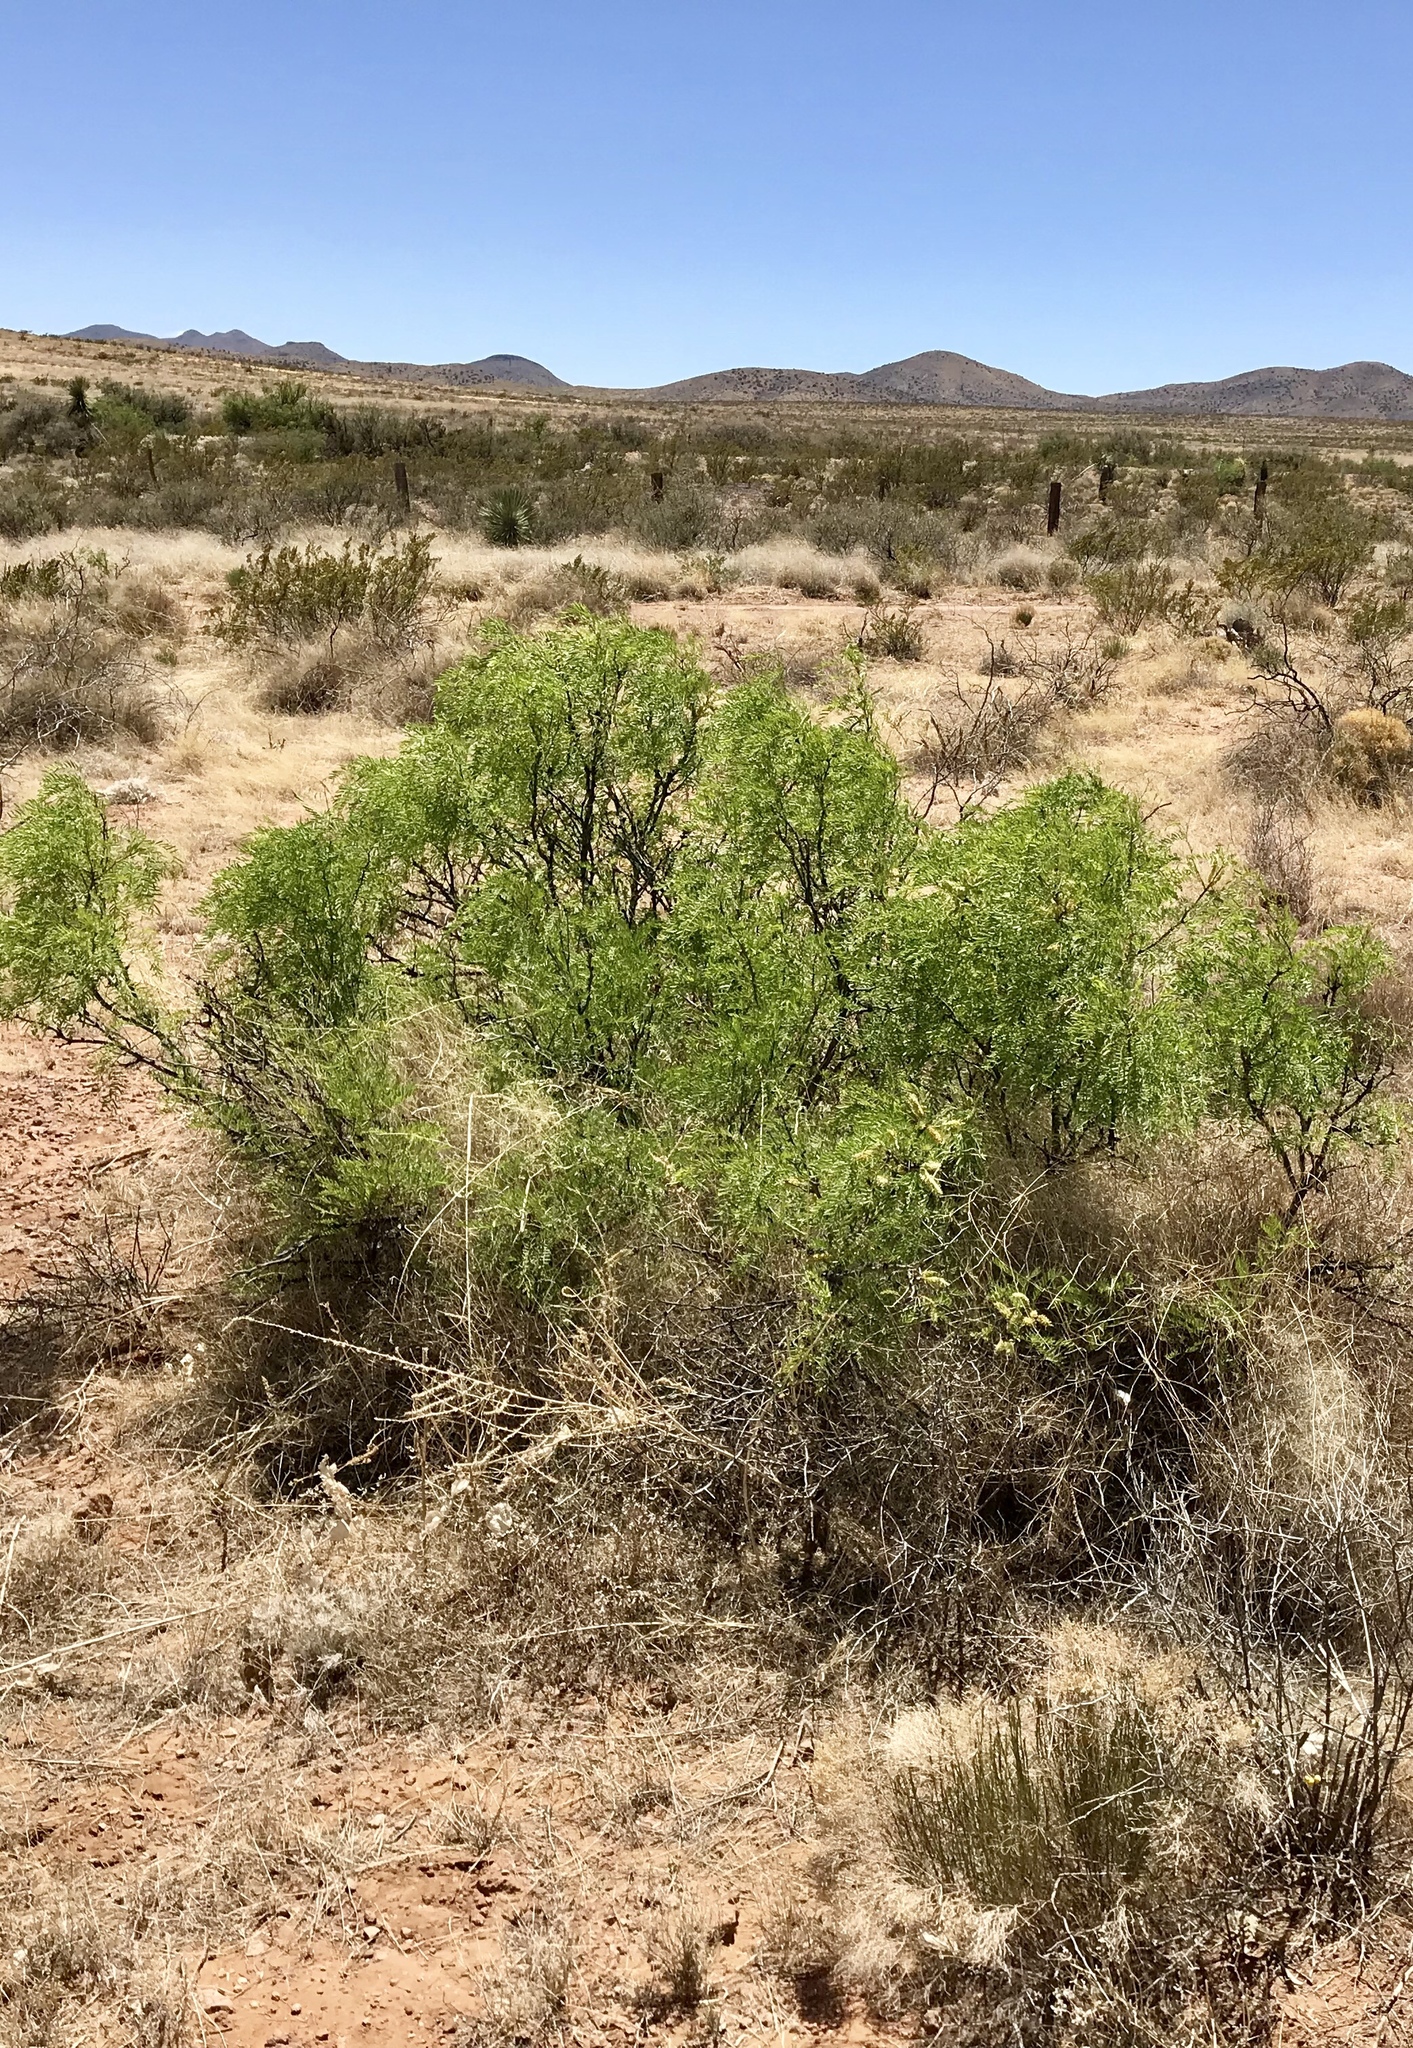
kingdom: Plantae
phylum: Tracheophyta
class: Magnoliopsida
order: Fabales
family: Fabaceae
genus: Prosopis
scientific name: Prosopis glandulosa
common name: Honey mesquite
